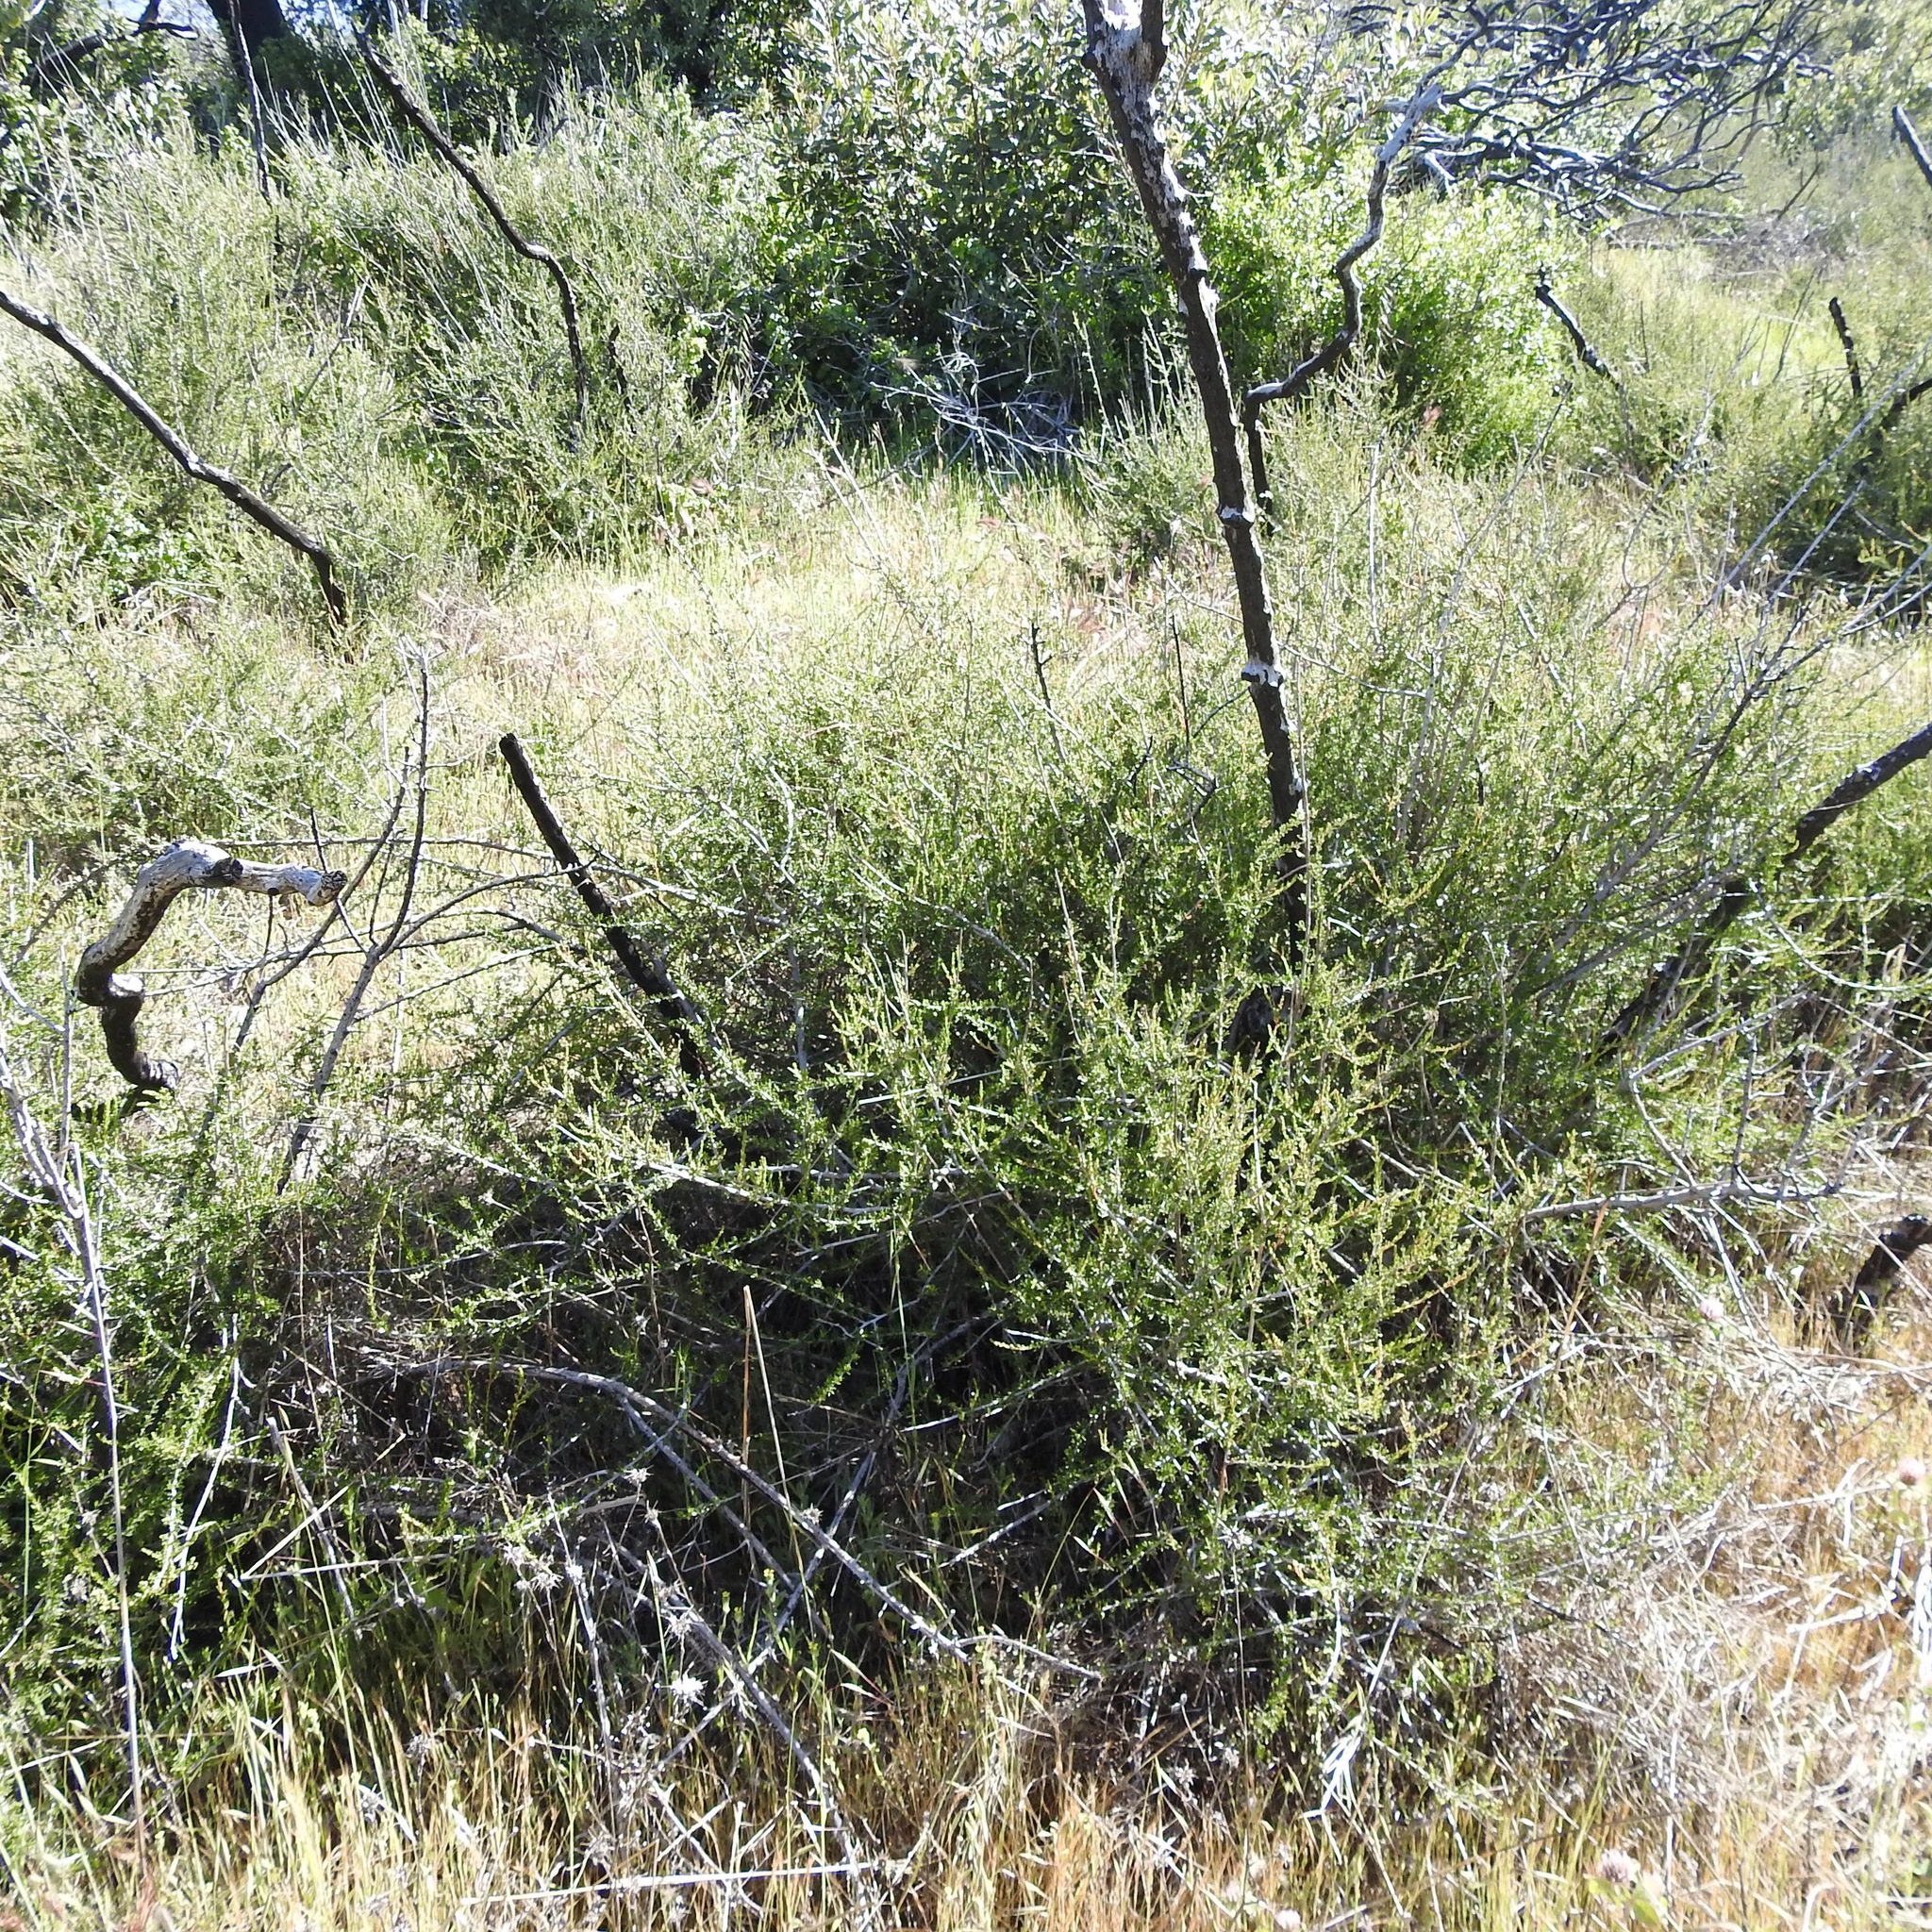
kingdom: Plantae
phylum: Tracheophyta
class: Magnoliopsida
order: Rosales
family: Rosaceae
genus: Adenostoma
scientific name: Adenostoma fasciculatum
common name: Chamise
